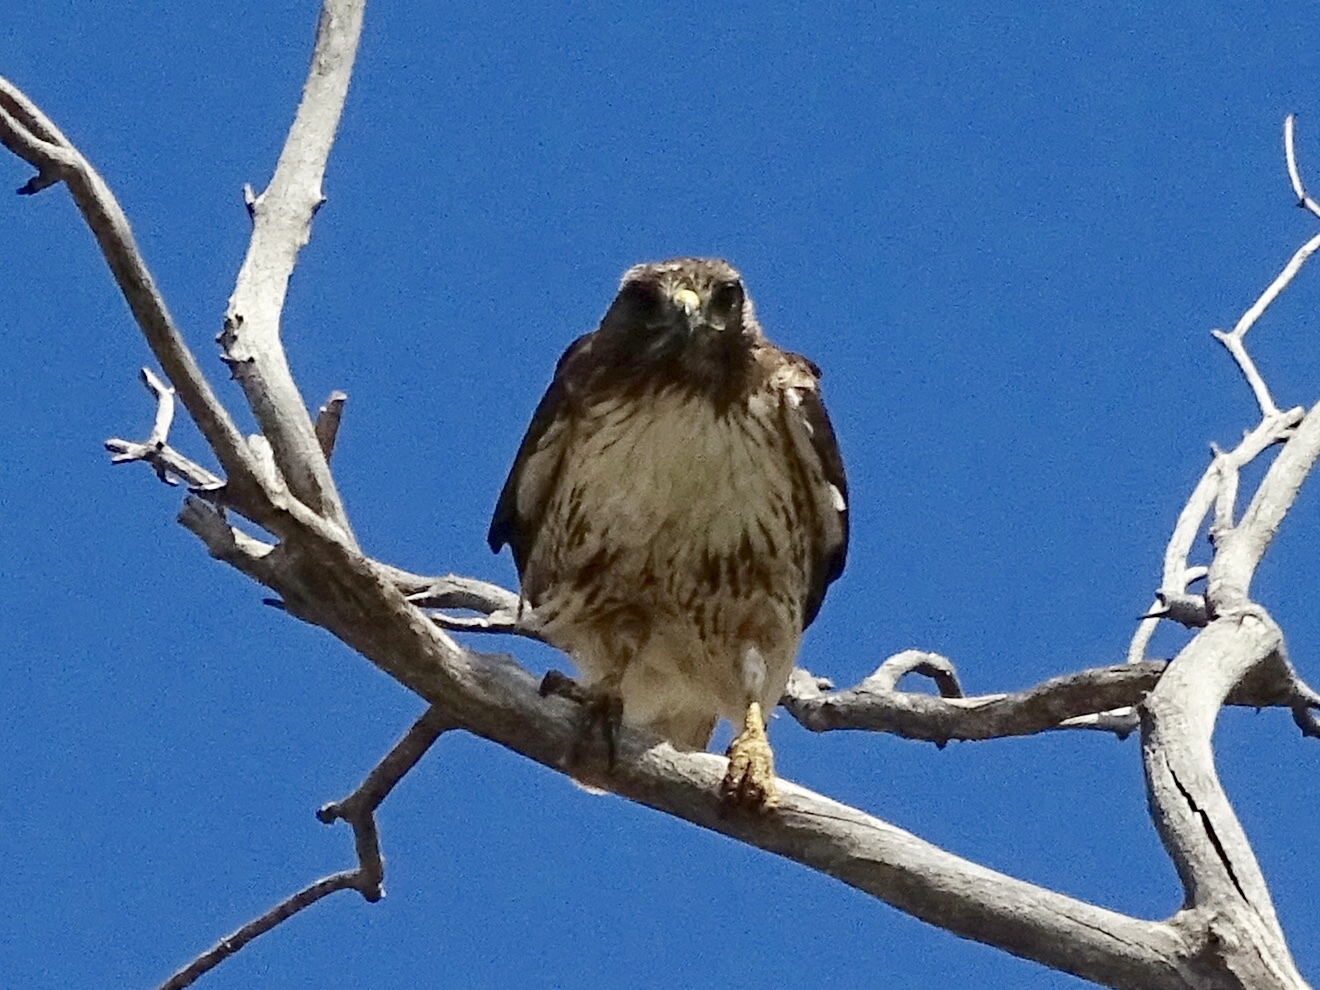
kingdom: Animalia
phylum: Chordata
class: Aves
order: Accipitriformes
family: Accipitridae
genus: Buteo
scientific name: Buteo jamaicensis
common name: Red-tailed hawk
